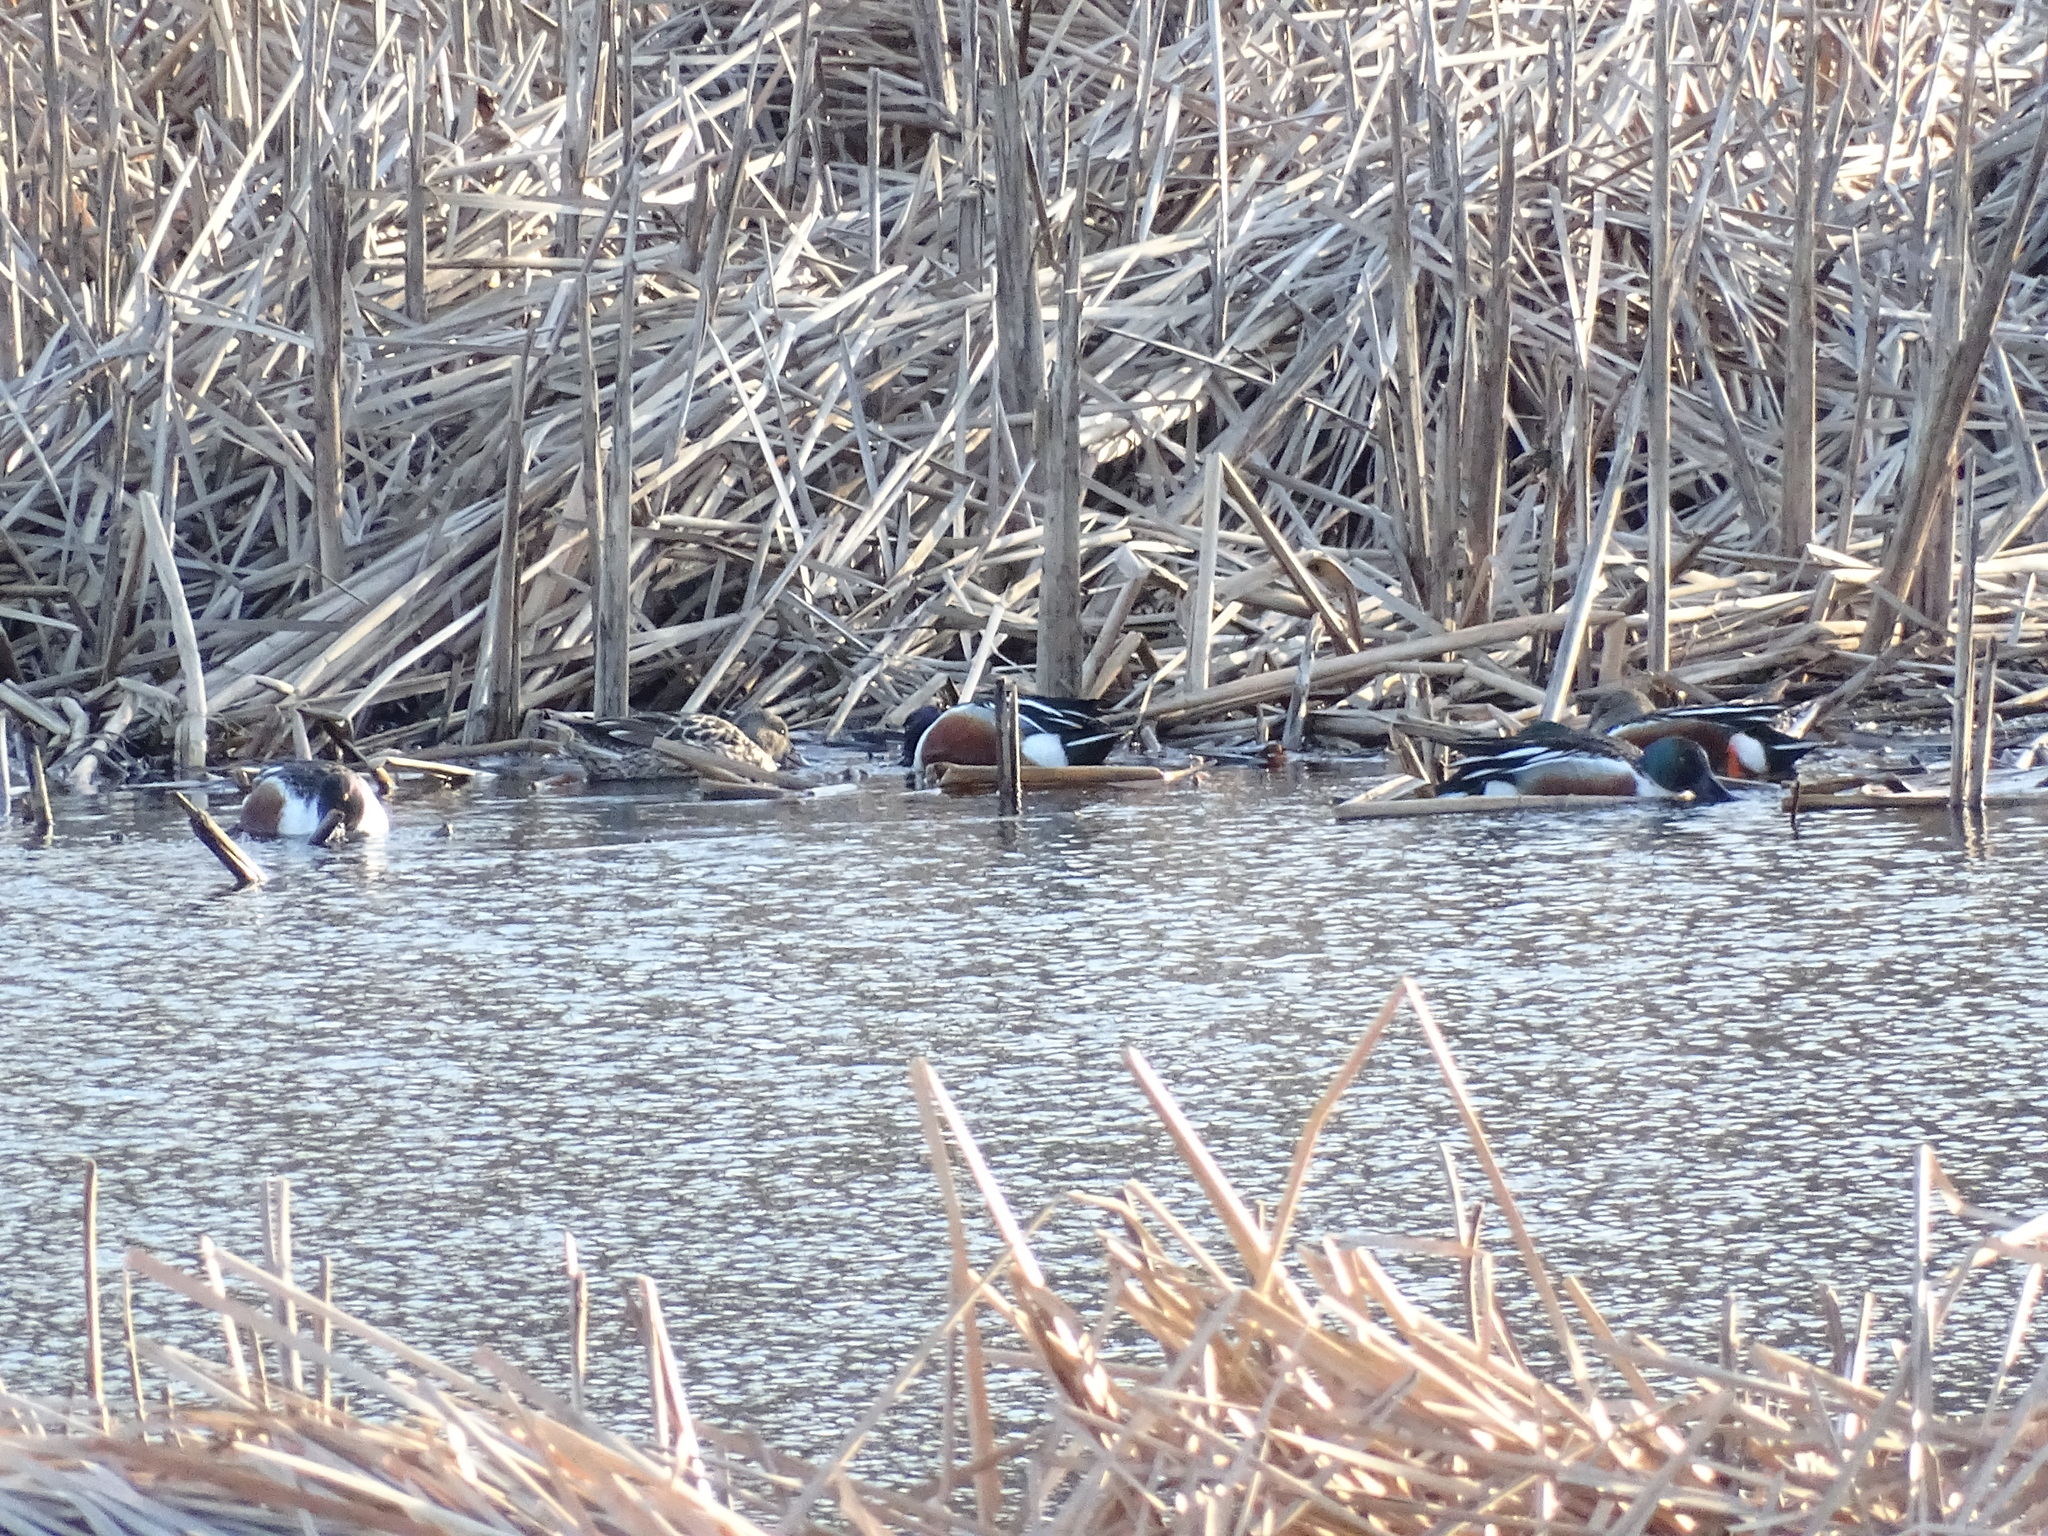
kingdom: Animalia
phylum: Chordata
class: Aves
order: Anseriformes
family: Anatidae
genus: Spatula
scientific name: Spatula clypeata
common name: Northern shoveler
